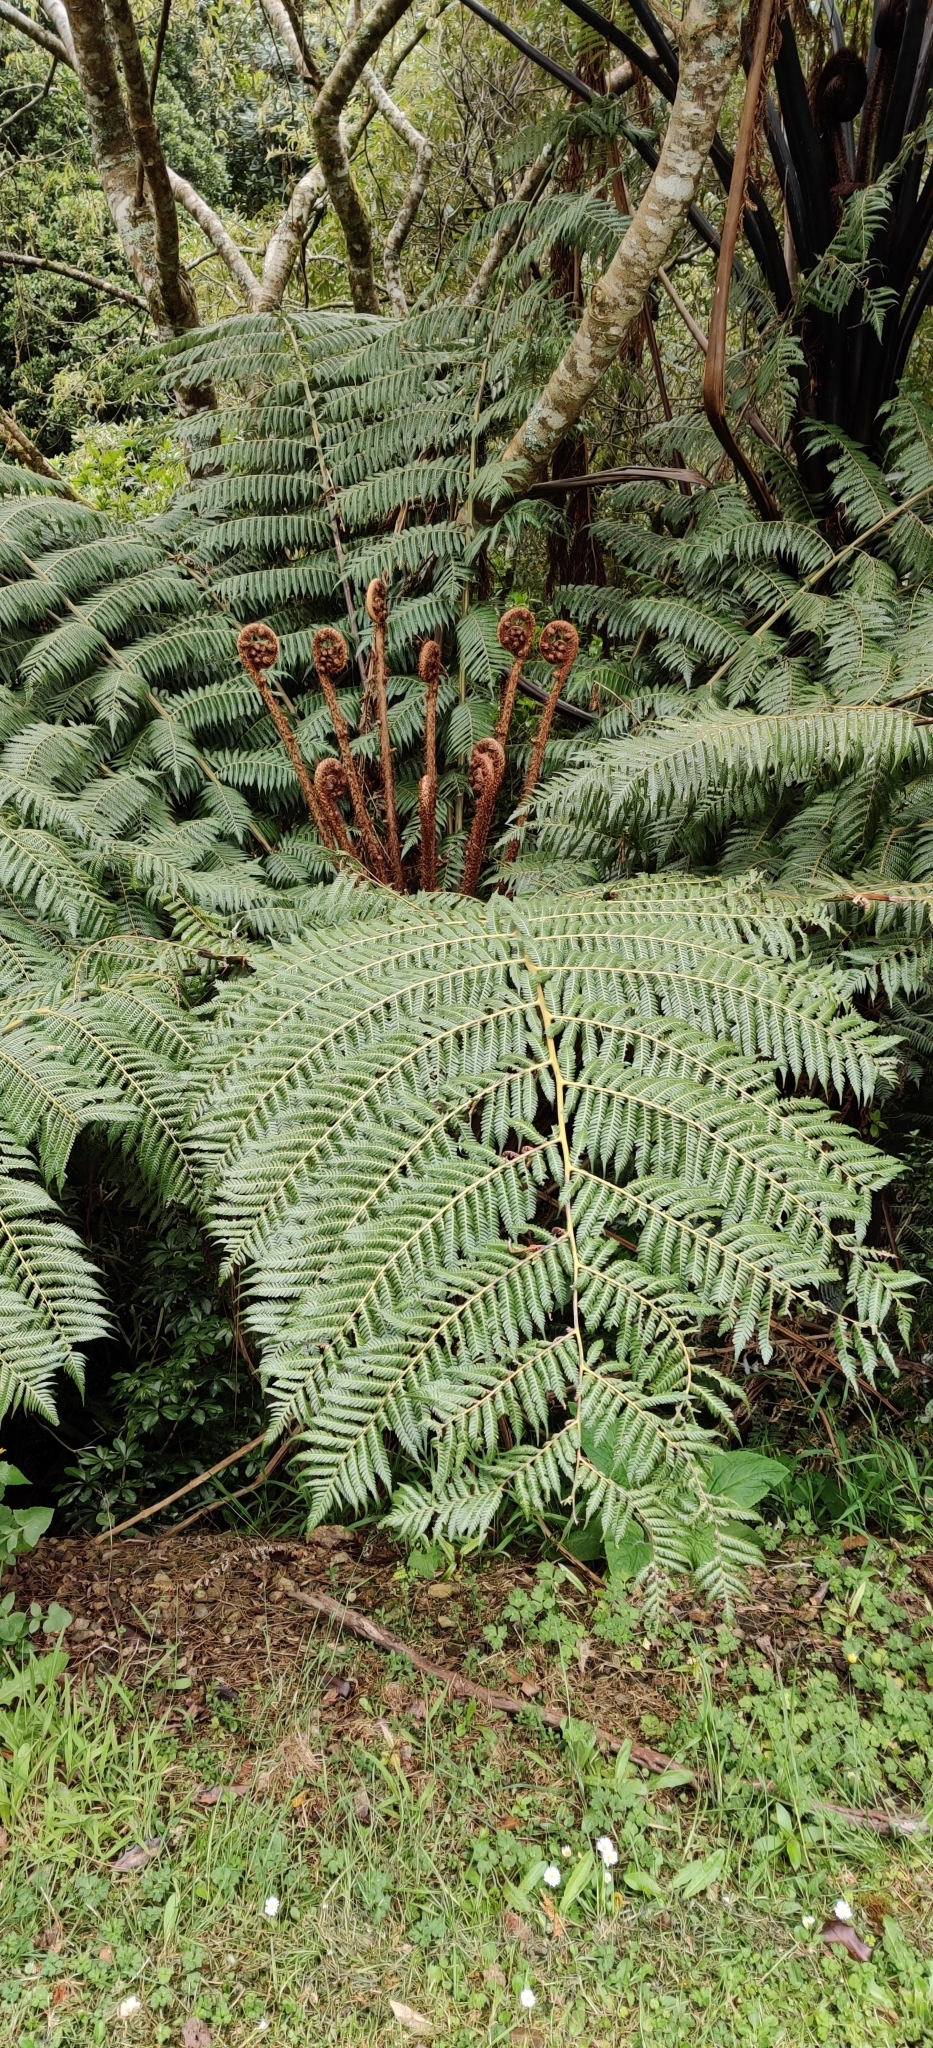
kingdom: Plantae
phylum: Tracheophyta
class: Polypodiopsida
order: Cyatheales
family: Cyatheaceae
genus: Alsophila
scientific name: Alsophila dealbata
